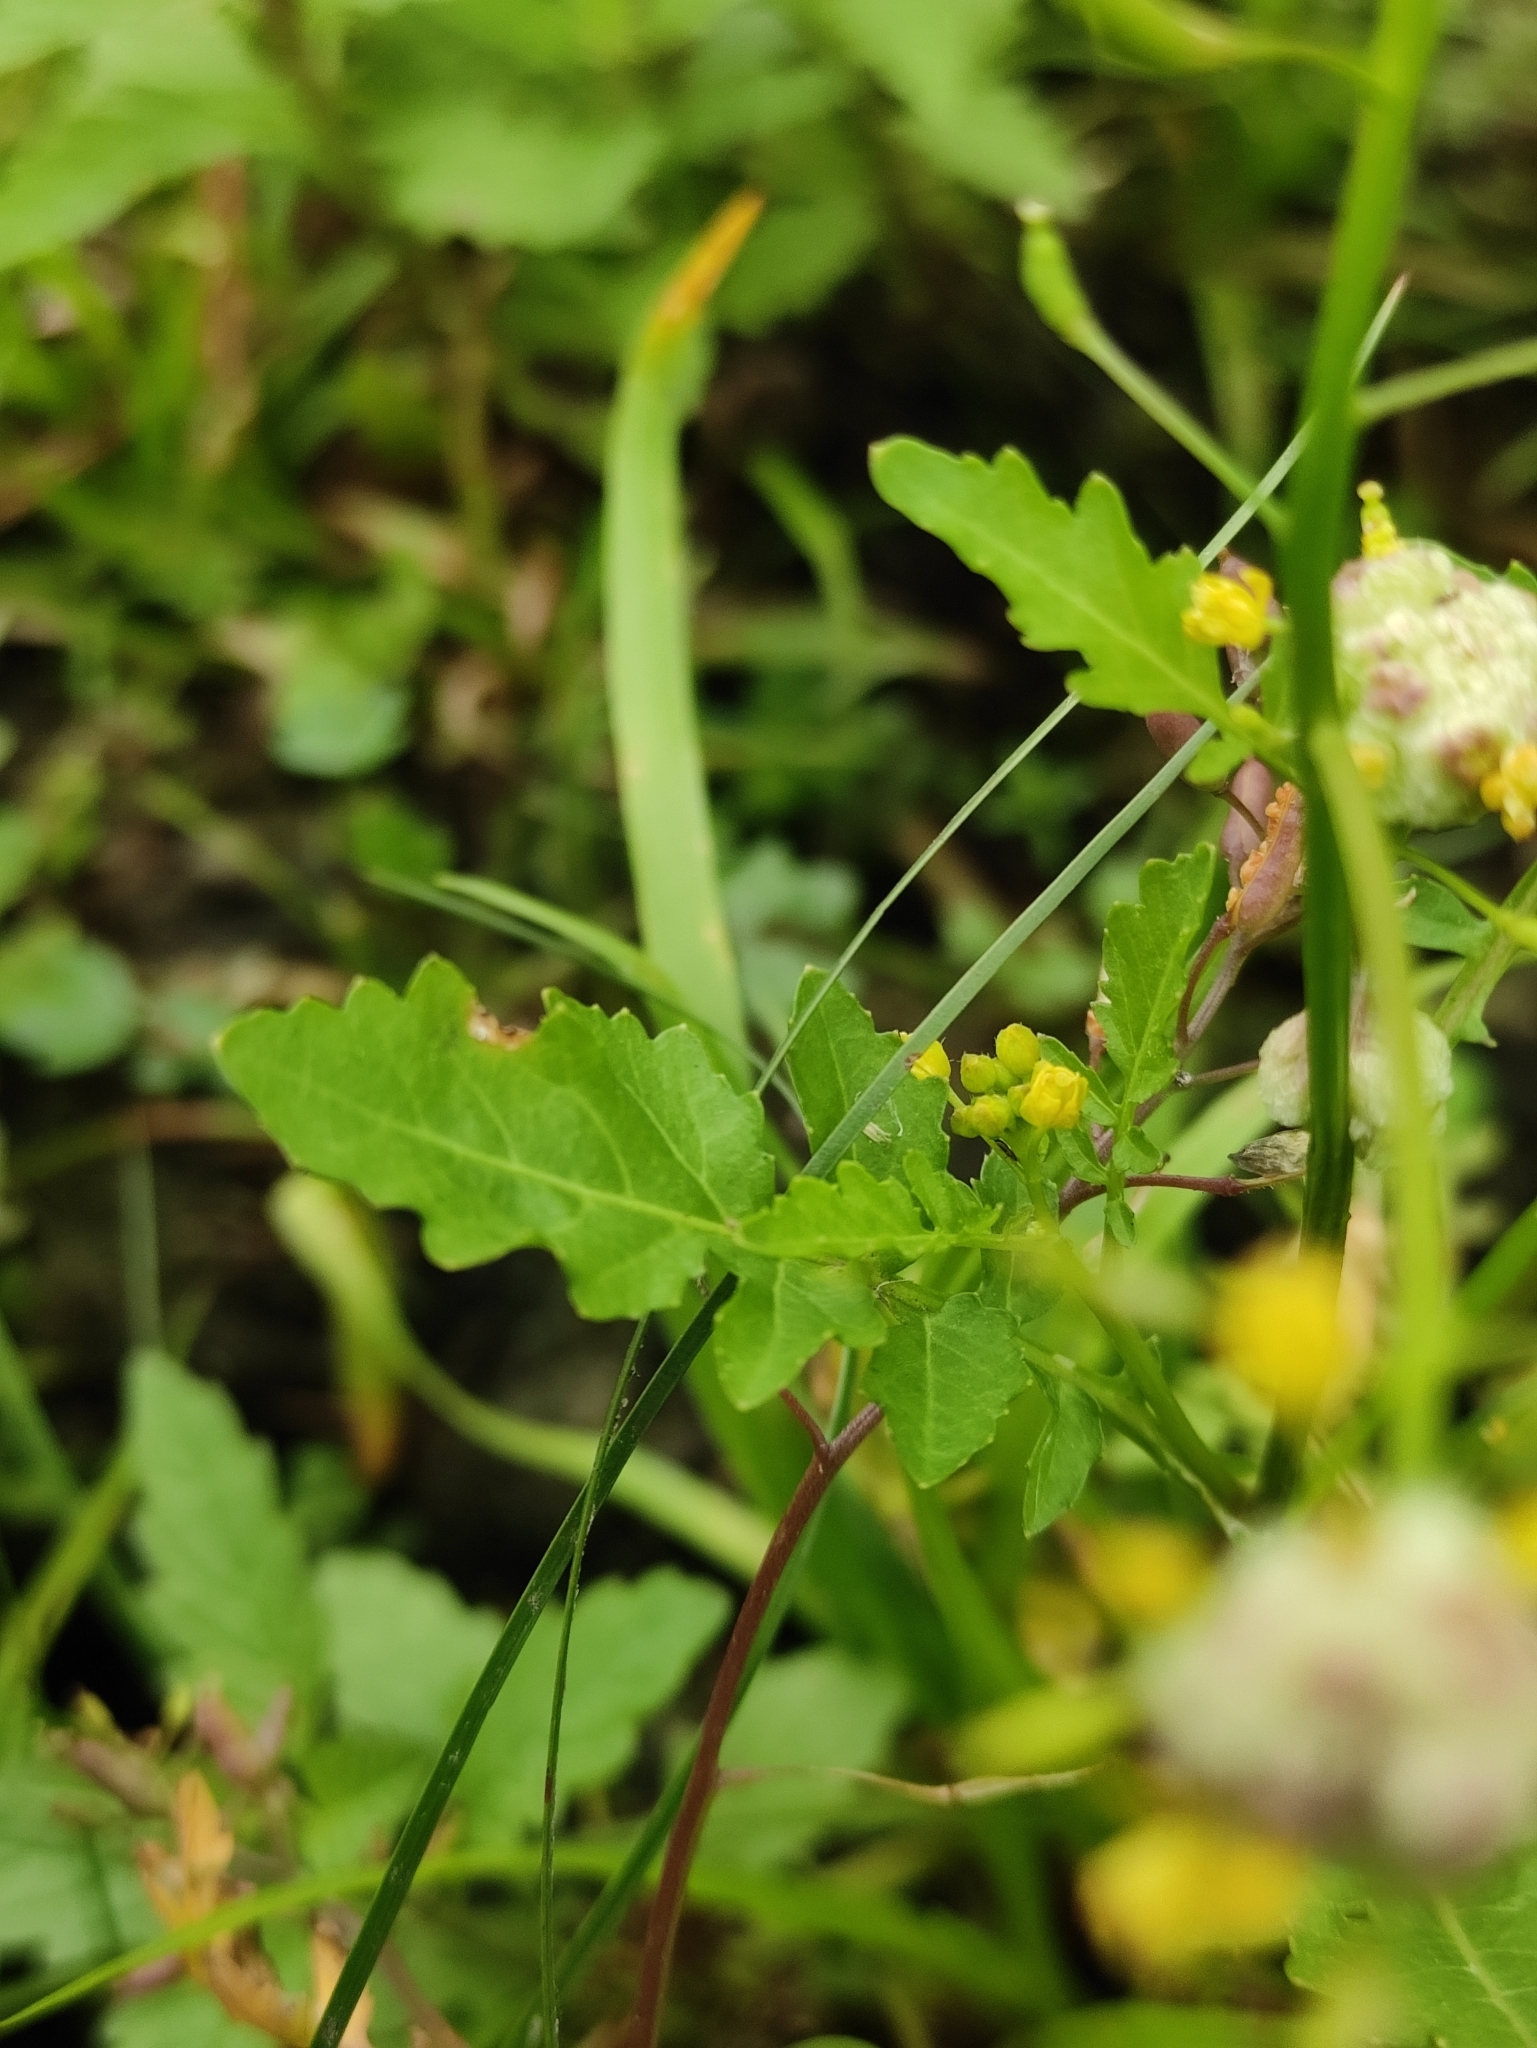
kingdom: Plantae
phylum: Tracheophyta
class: Magnoliopsida
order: Brassicales
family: Brassicaceae
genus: Rorippa
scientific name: Rorippa palustris
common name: Marsh yellow-cress
